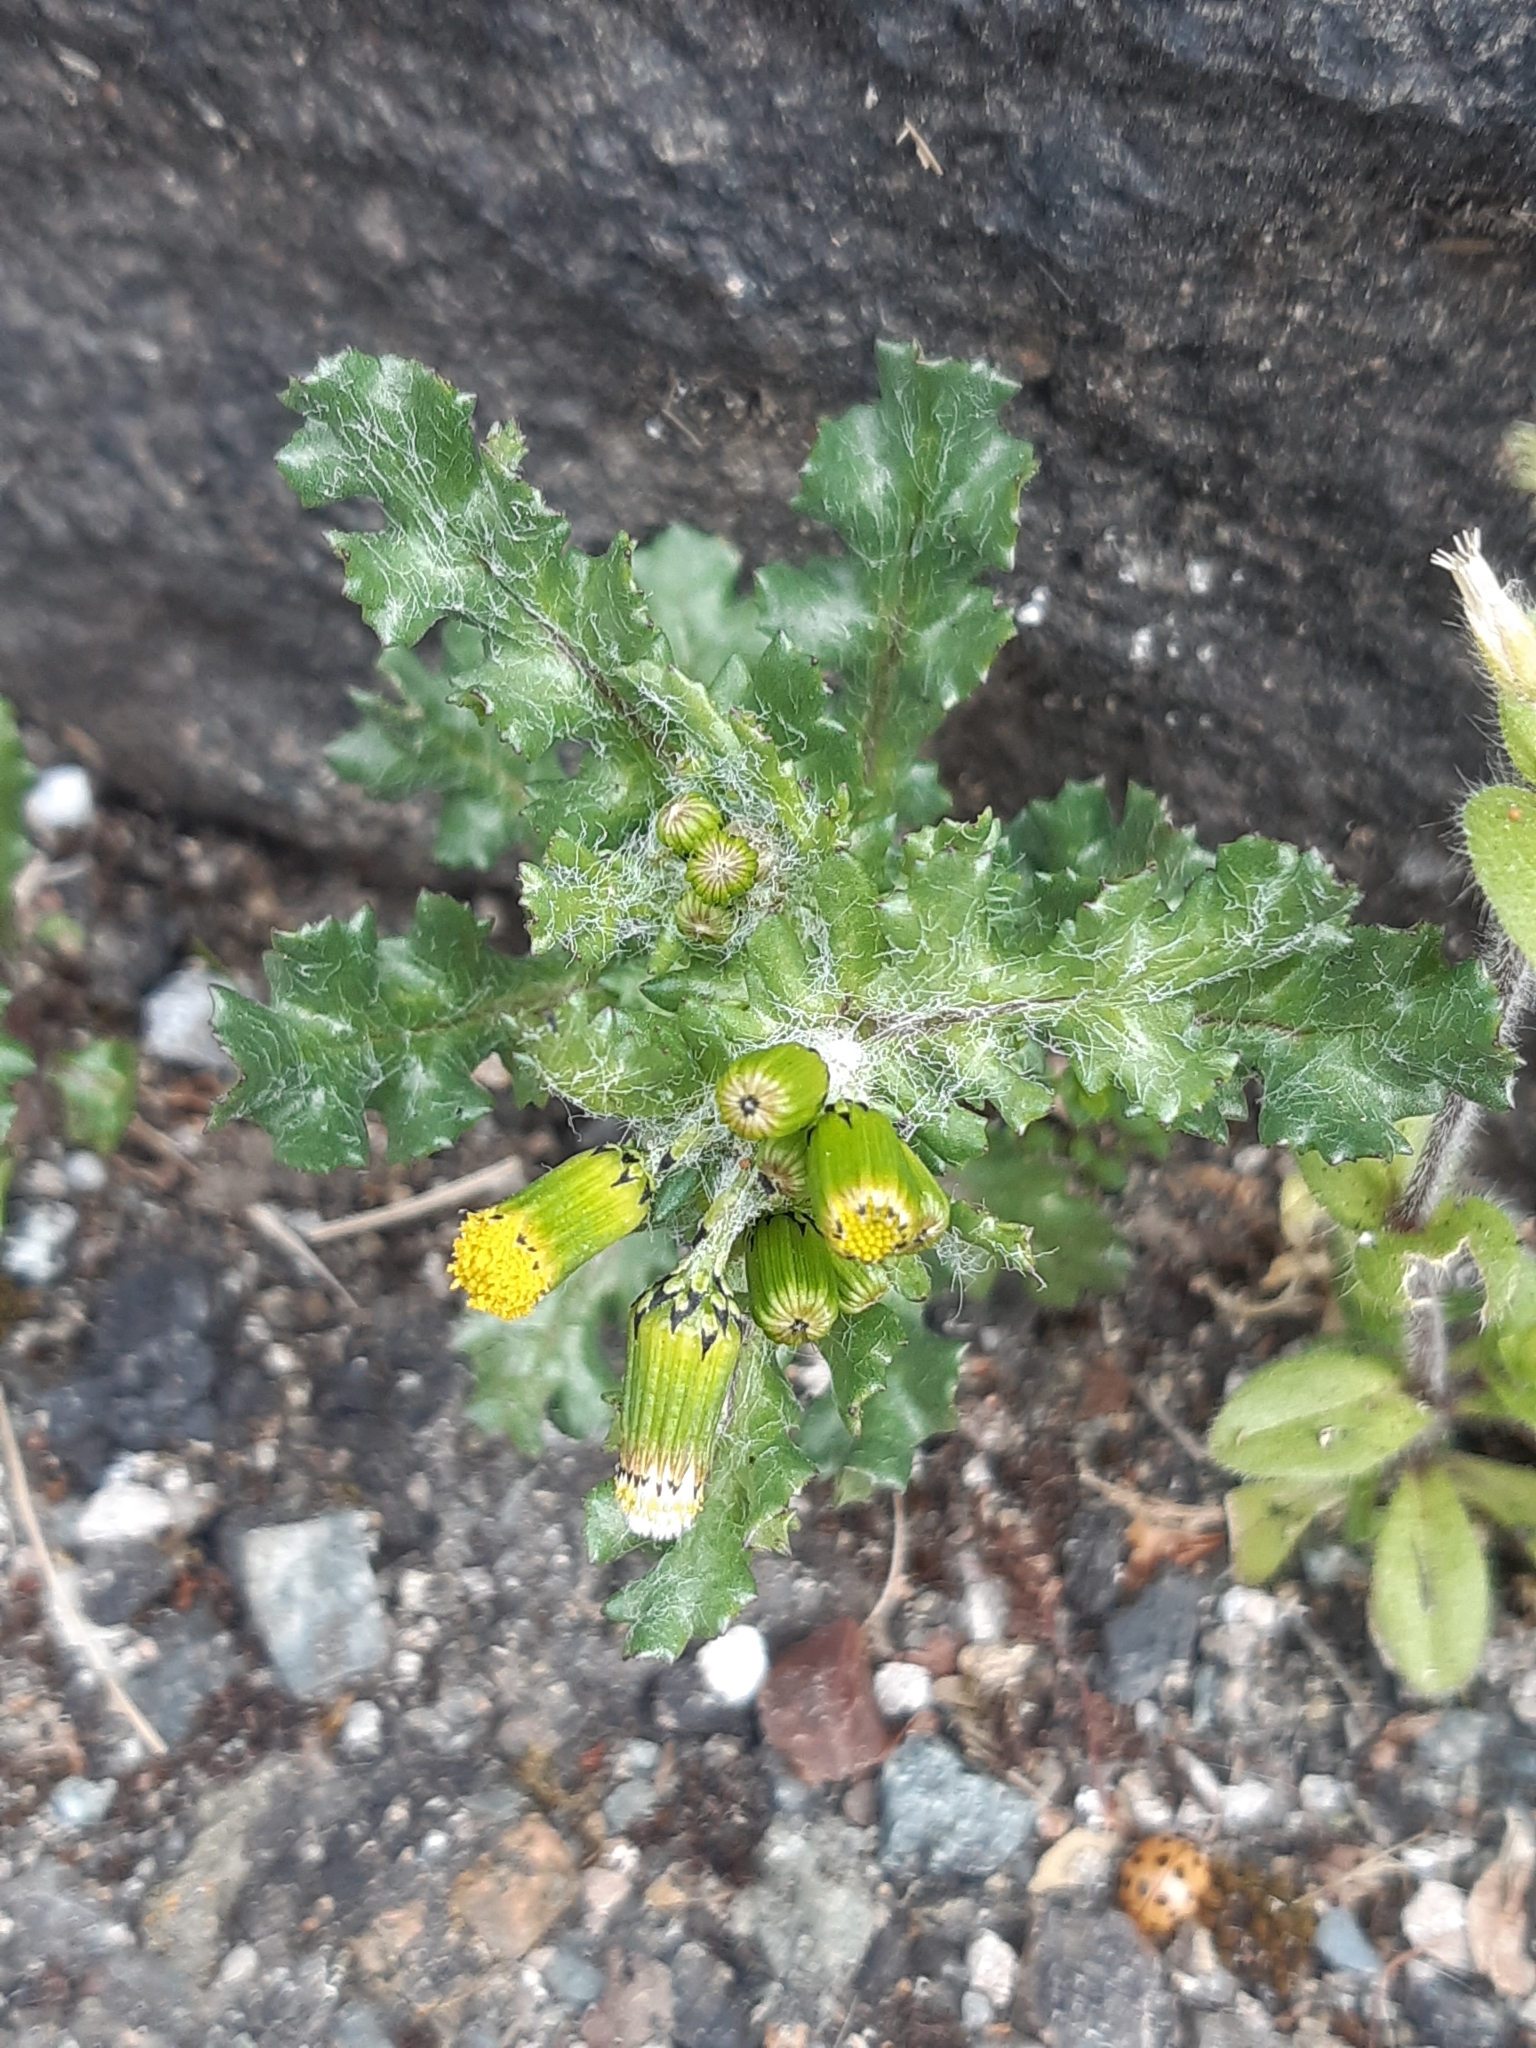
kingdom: Plantae
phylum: Tracheophyta
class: Magnoliopsida
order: Asterales
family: Asteraceae
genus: Senecio
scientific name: Senecio vulgaris
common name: Old-man-in-the-spring
